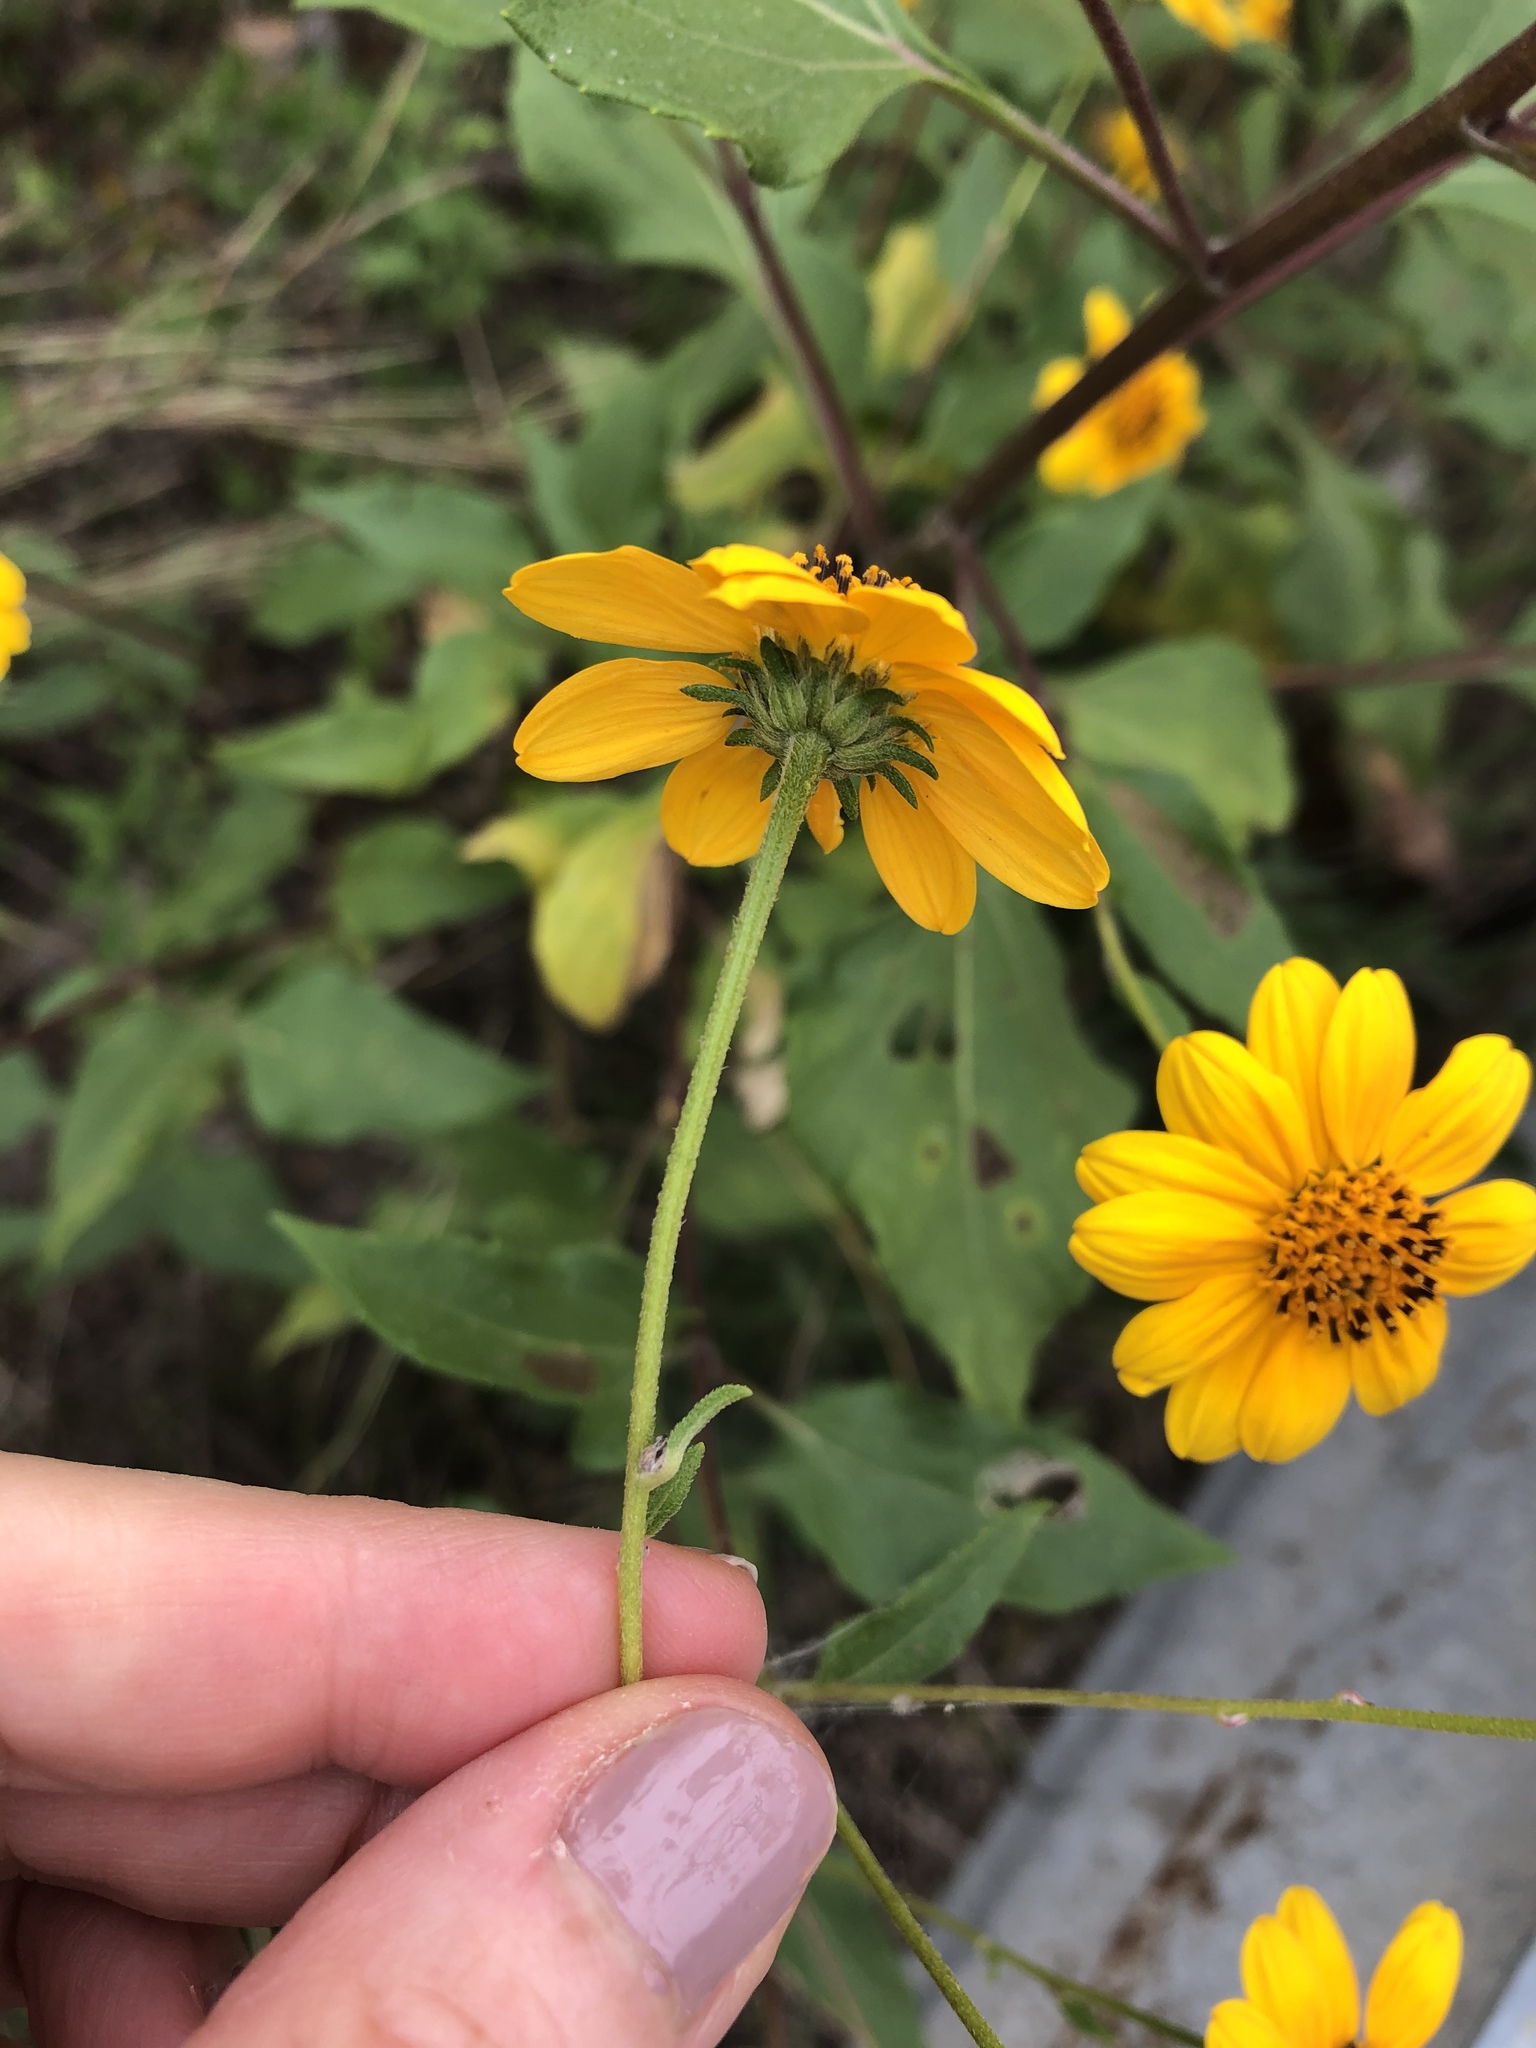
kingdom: Plantae
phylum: Tracheophyta
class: Magnoliopsida
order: Asterales
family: Asteraceae
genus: Viguiera
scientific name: Viguiera dentata
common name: Toothleaf
